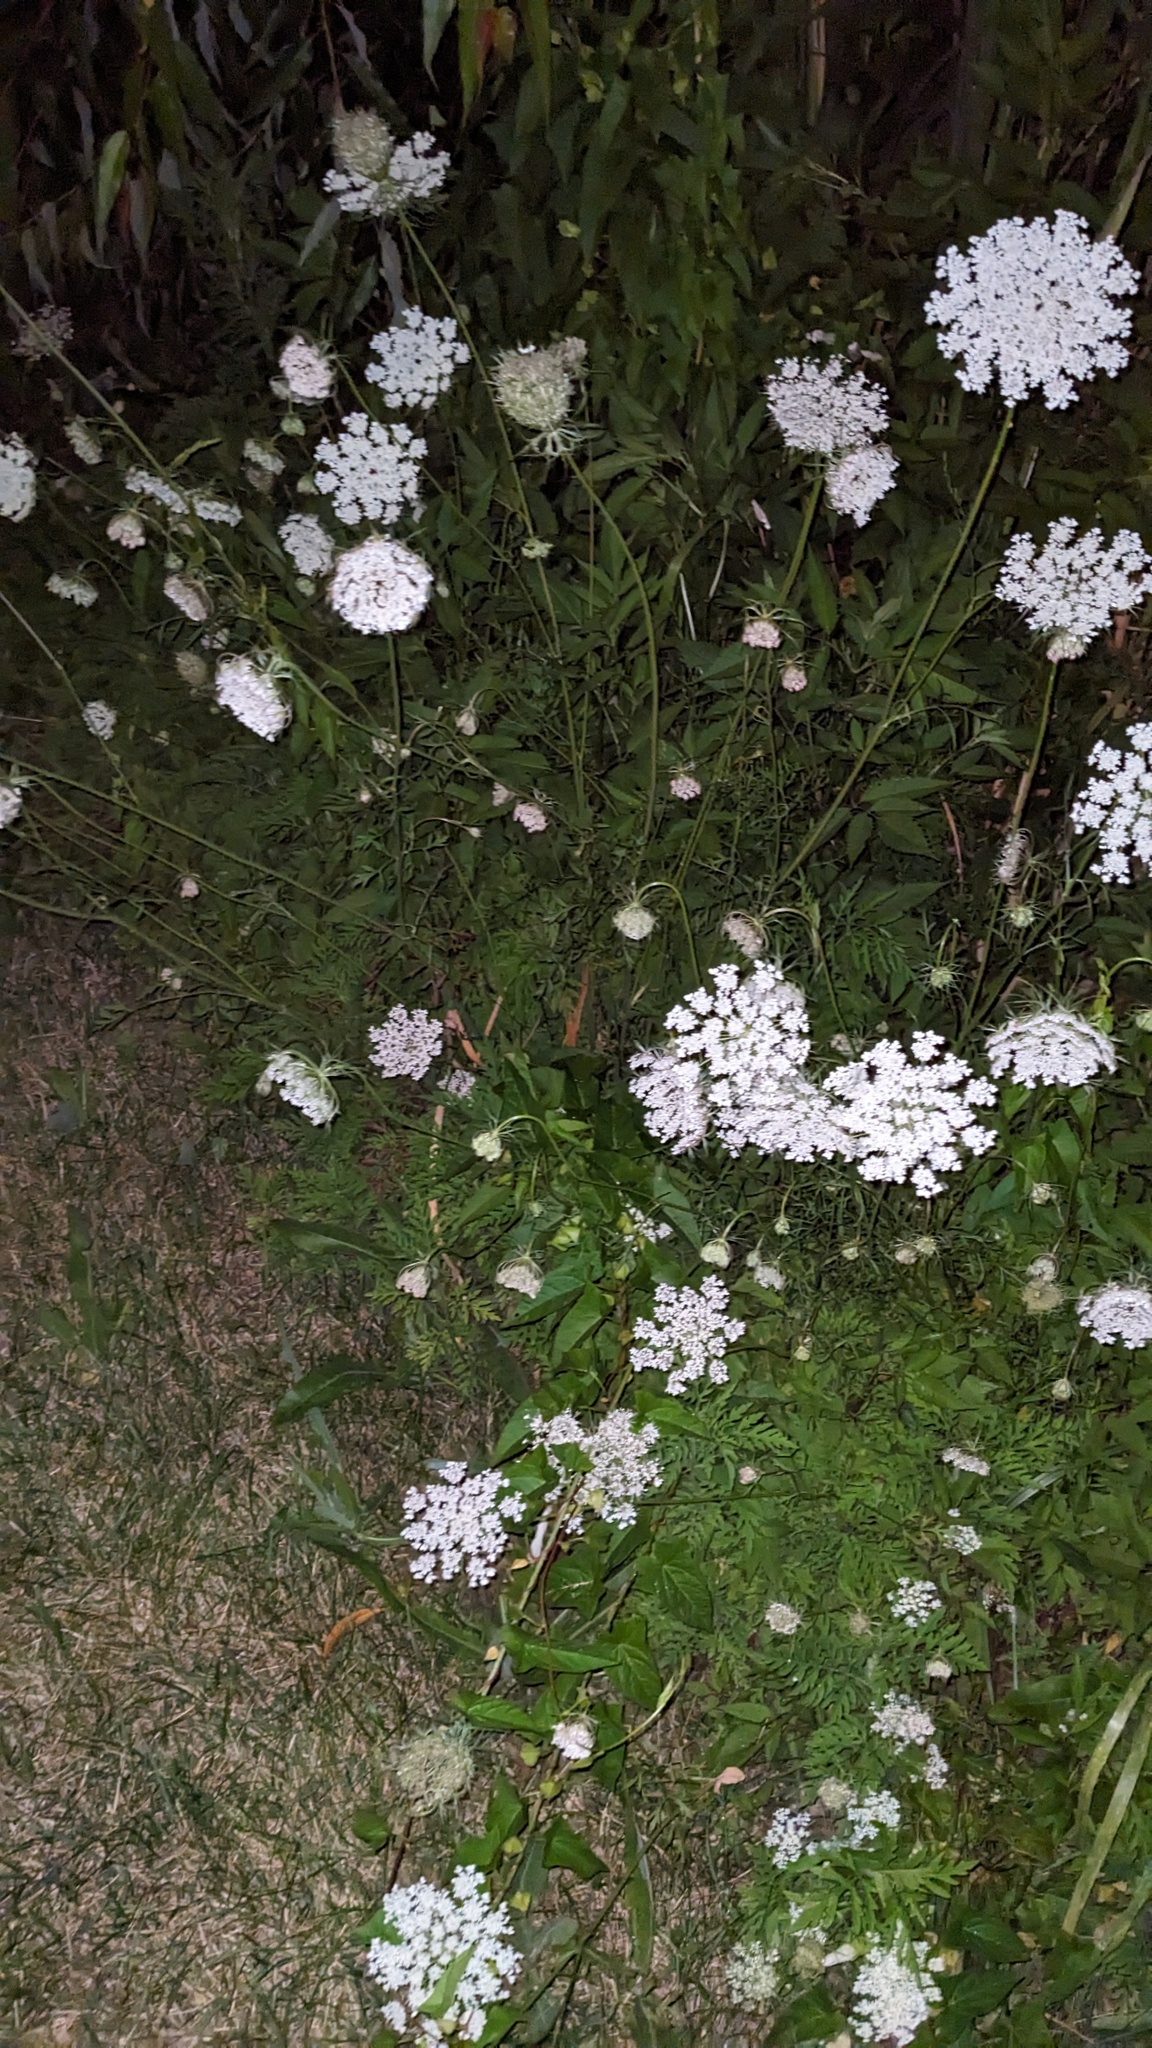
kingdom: Plantae
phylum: Tracheophyta
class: Magnoliopsida
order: Apiales
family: Apiaceae
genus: Daucus
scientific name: Daucus carota
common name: Wild carrot
